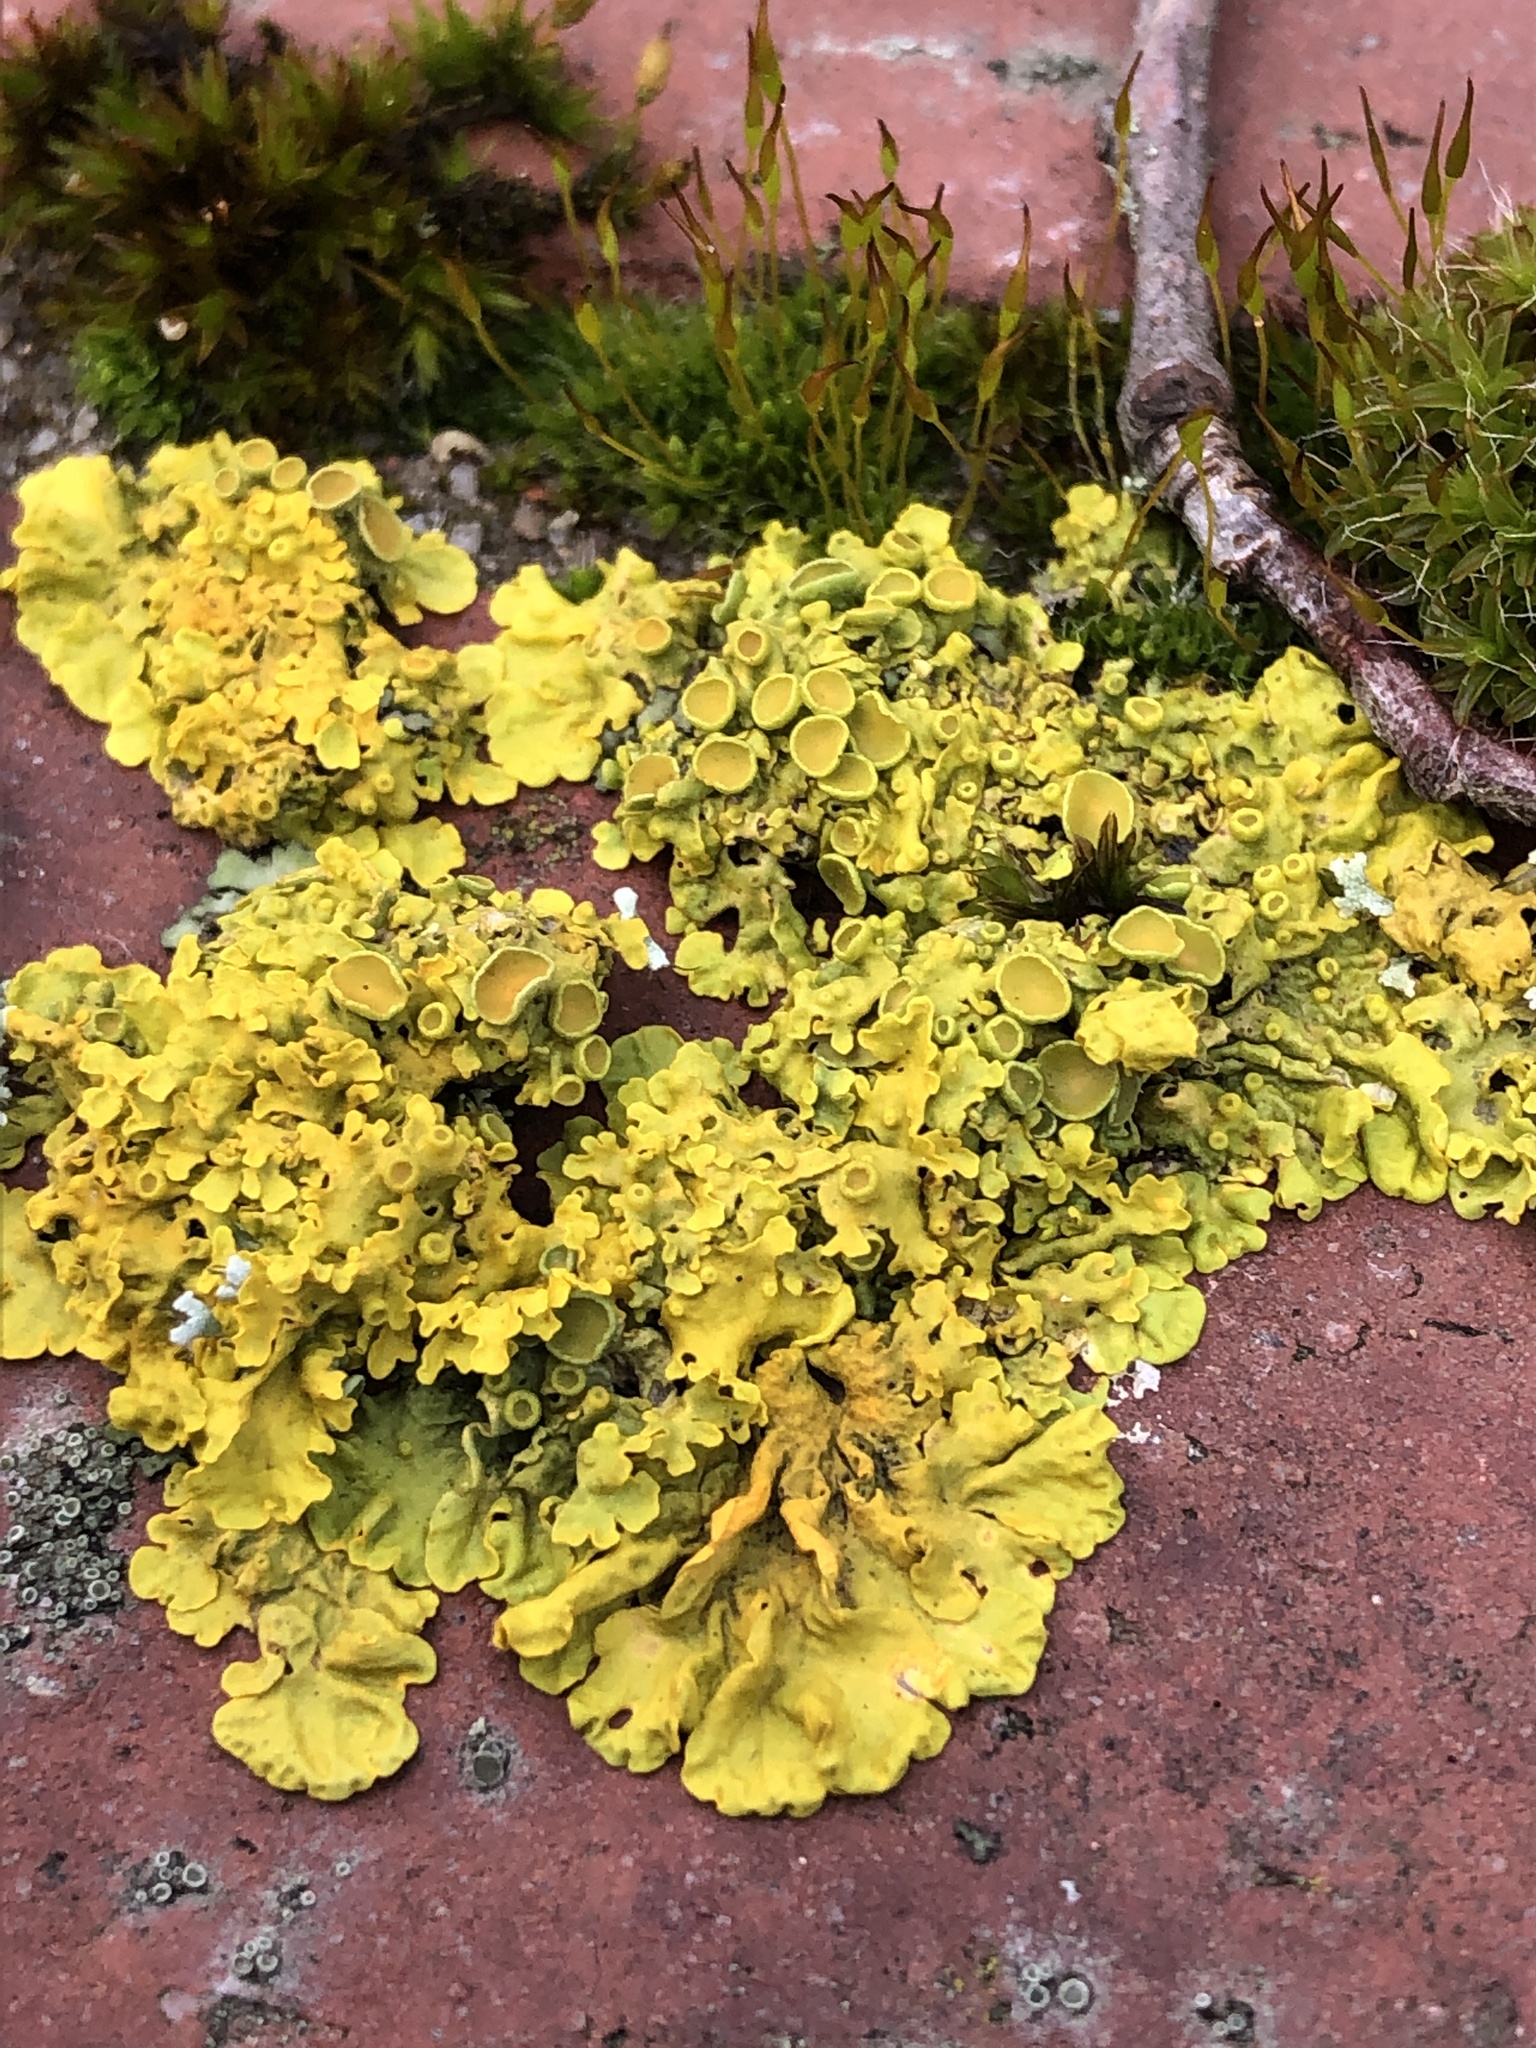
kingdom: Fungi
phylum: Ascomycota
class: Lecanoromycetes
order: Teloschistales
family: Teloschistaceae
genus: Xanthoria
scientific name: Xanthoria parietina
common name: Common orange lichen
